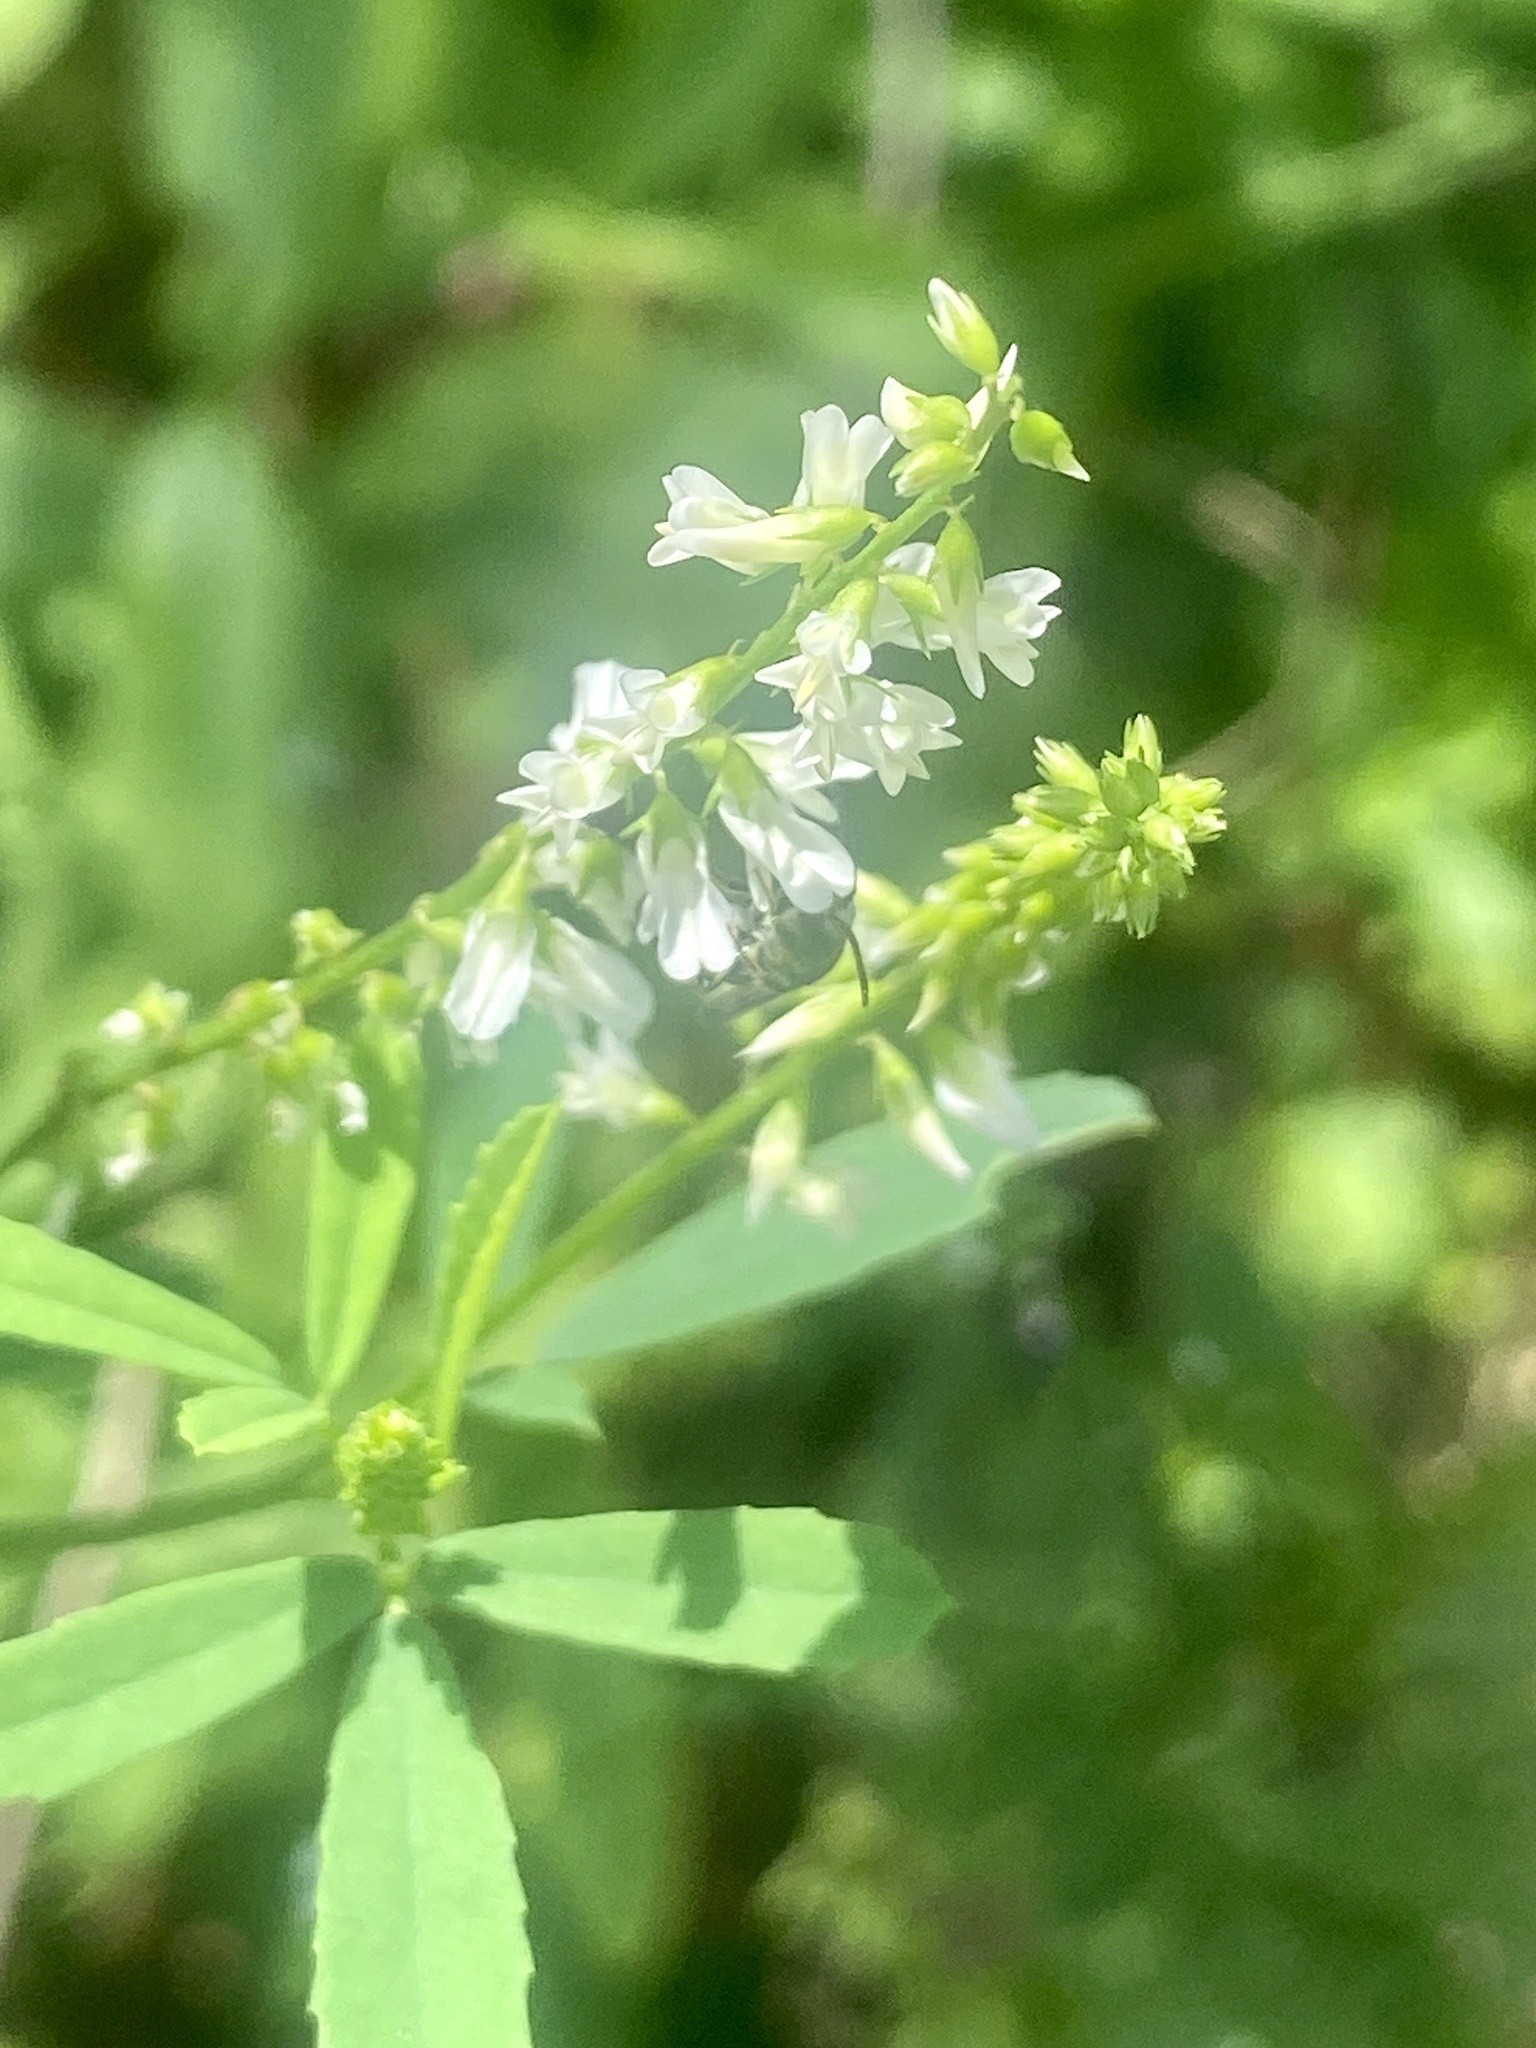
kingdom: Plantae
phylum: Tracheophyta
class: Magnoliopsida
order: Fabales
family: Fabaceae
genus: Melilotus
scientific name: Melilotus albus
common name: White melilot
